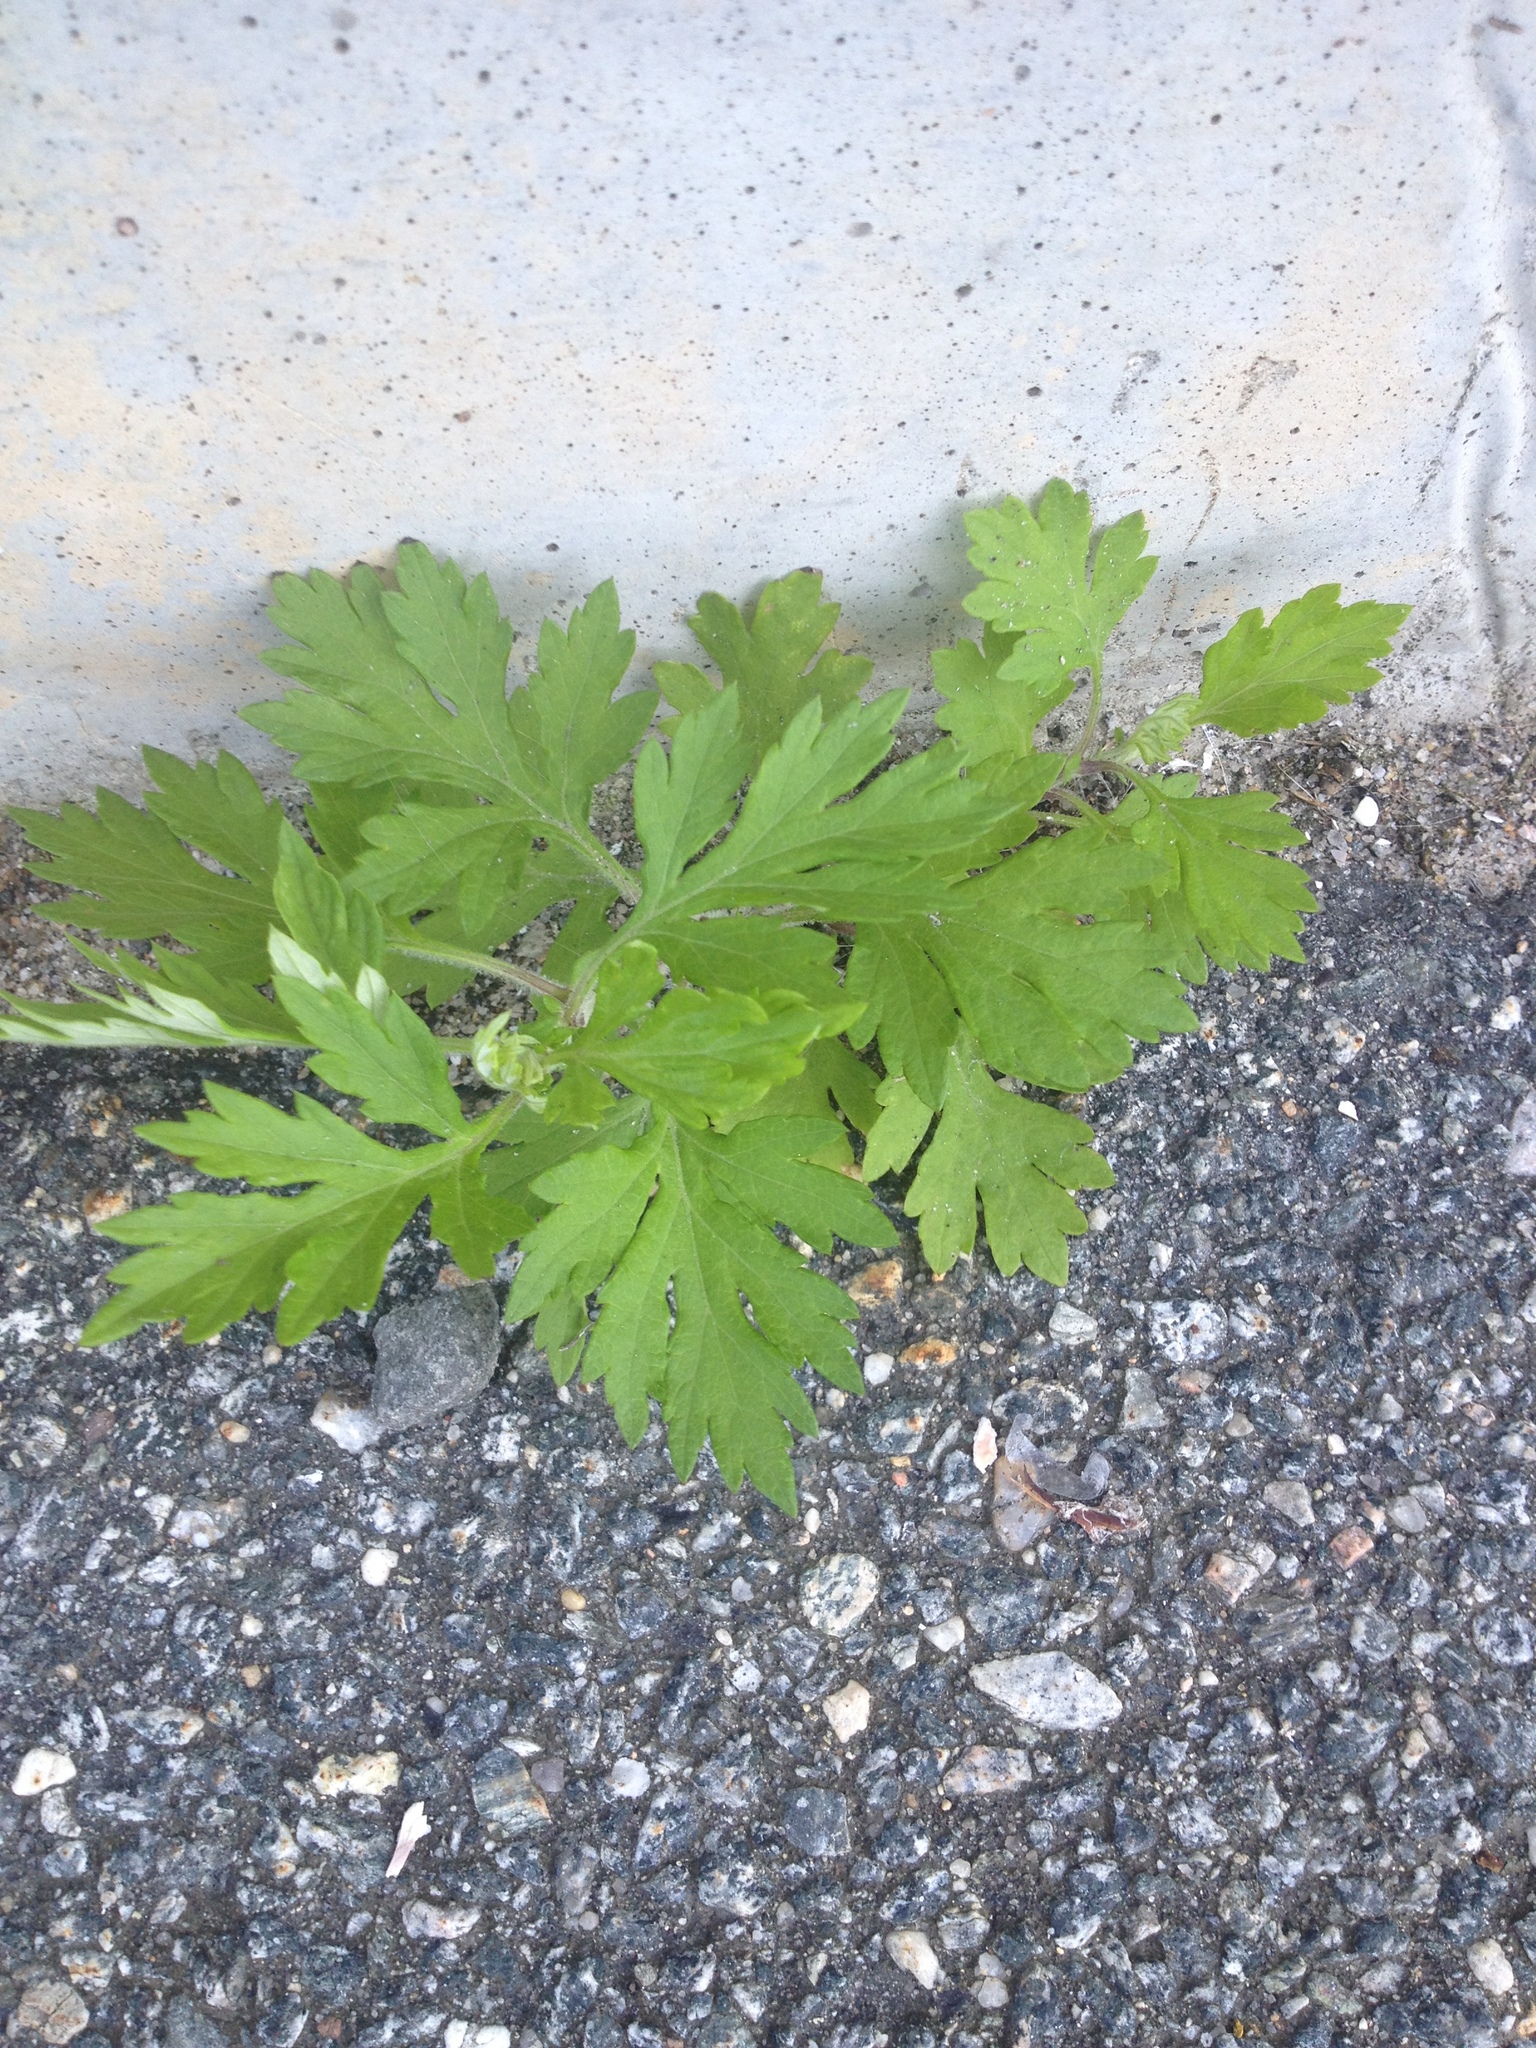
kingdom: Plantae
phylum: Tracheophyta
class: Magnoliopsida
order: Asterales
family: Asteraceae
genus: Artemisia
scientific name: Artemisia vulgaris
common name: Mugwort
